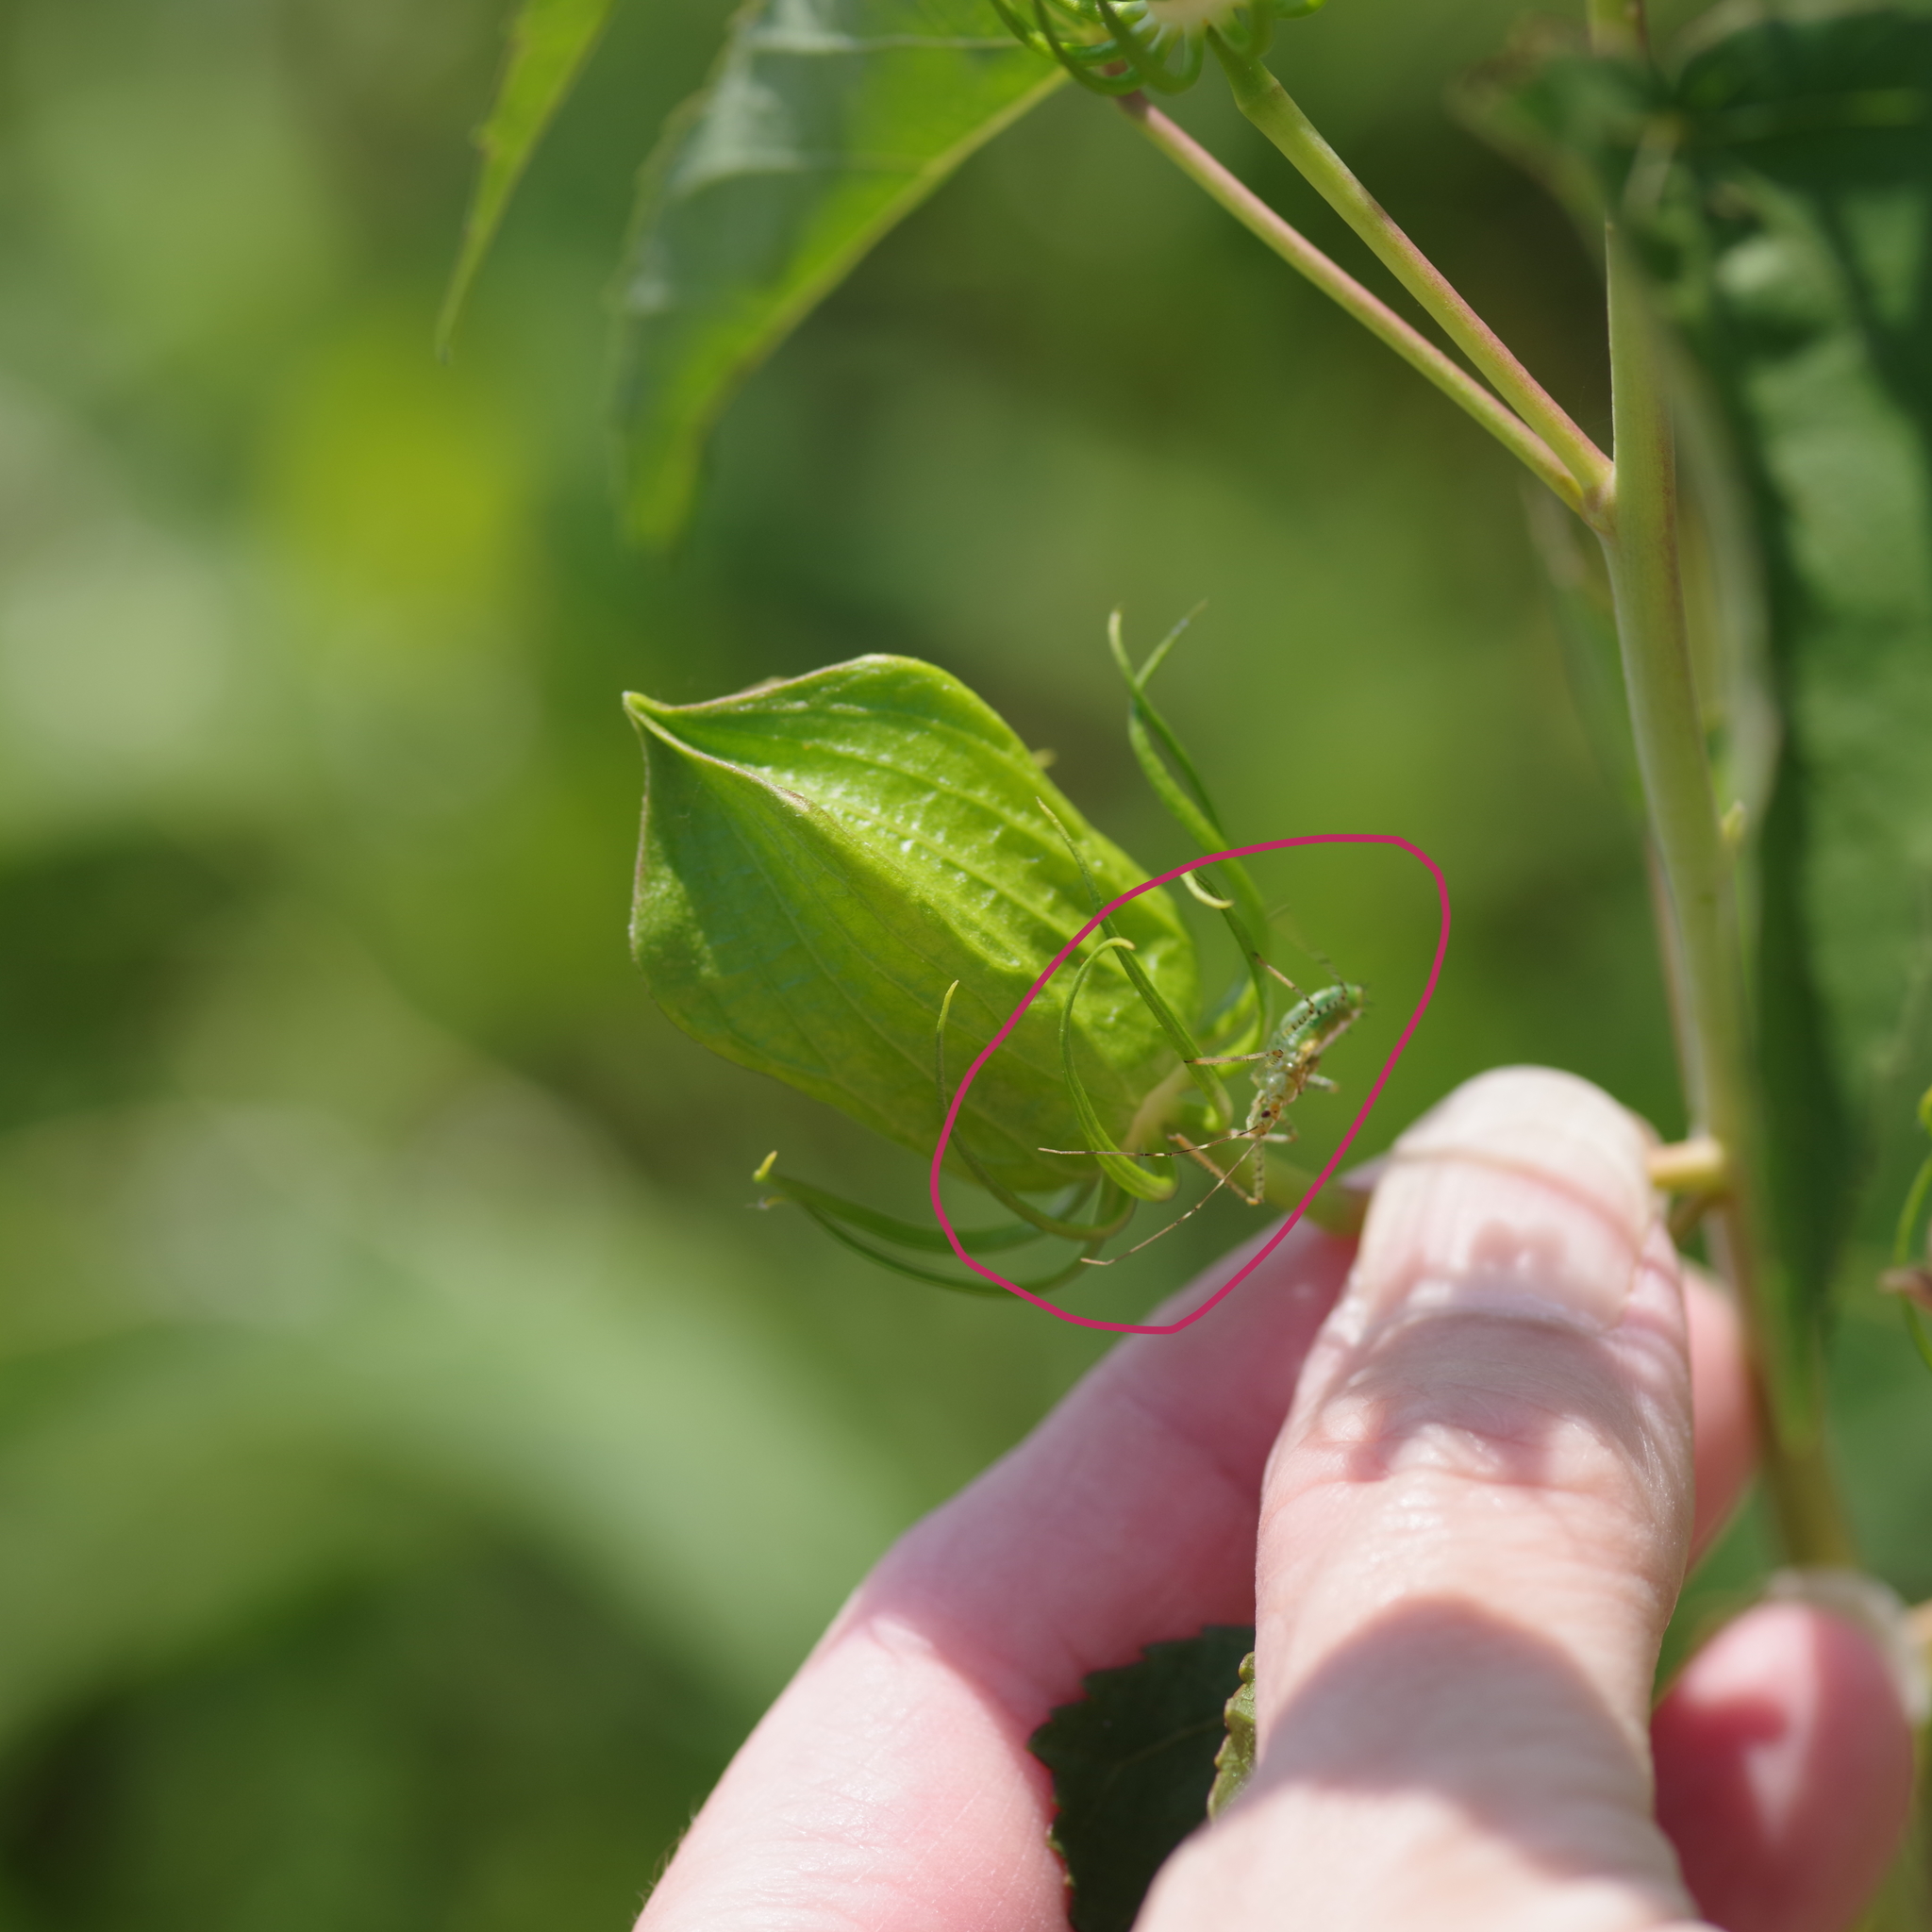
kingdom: Animalia
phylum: Arthropoda
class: Insecta
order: Hemiptera
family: Reduviidae
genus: Zelus
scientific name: Zelus renardii
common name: Assassin bug
